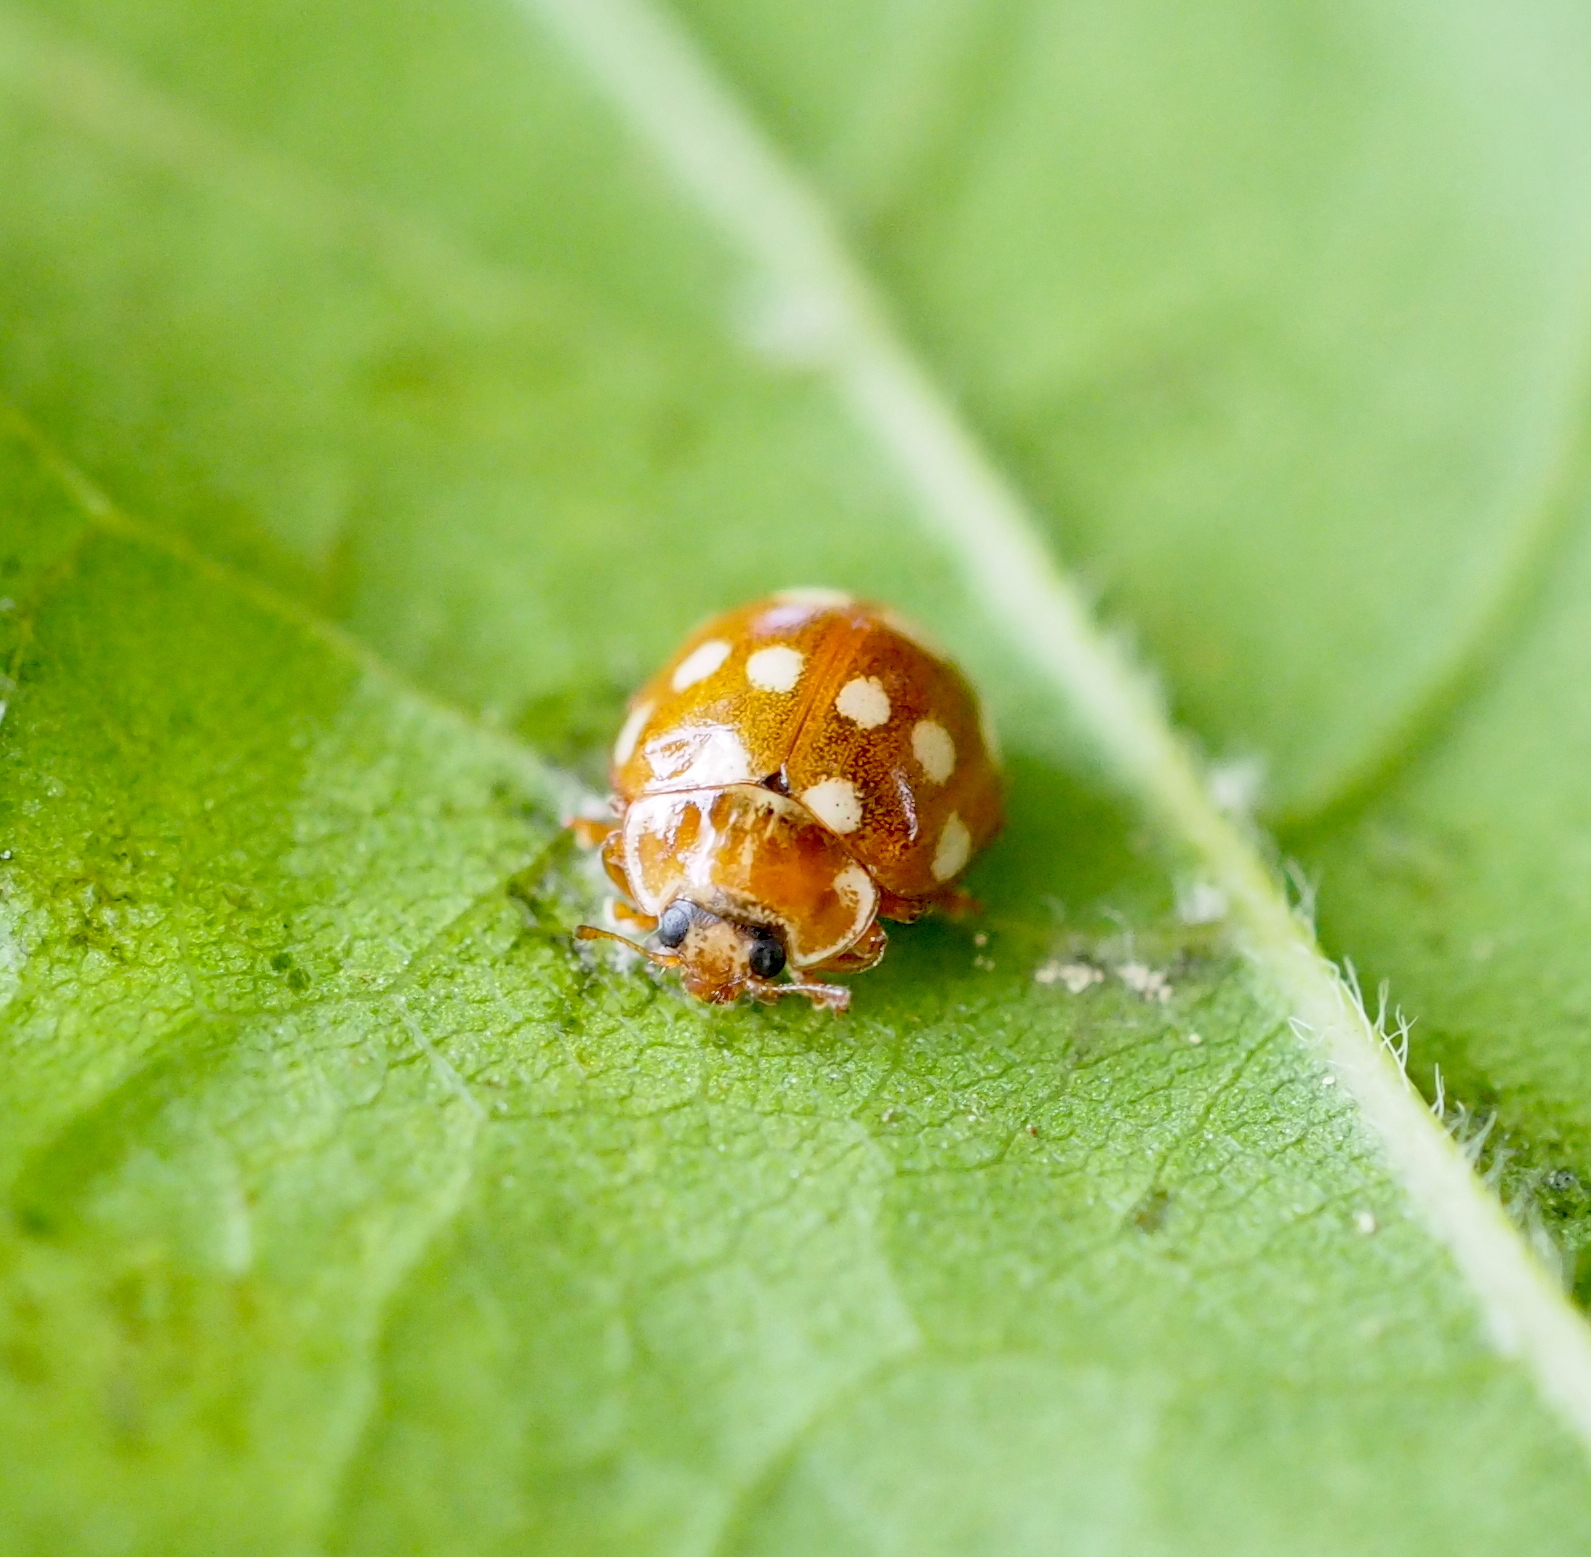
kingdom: Animalia
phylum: Arthropoda
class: Insecta
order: Coleoptera
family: Coccinellidae
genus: Calvia
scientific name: Calvia quatuordecimguttata
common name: Cream-spot ladybird
